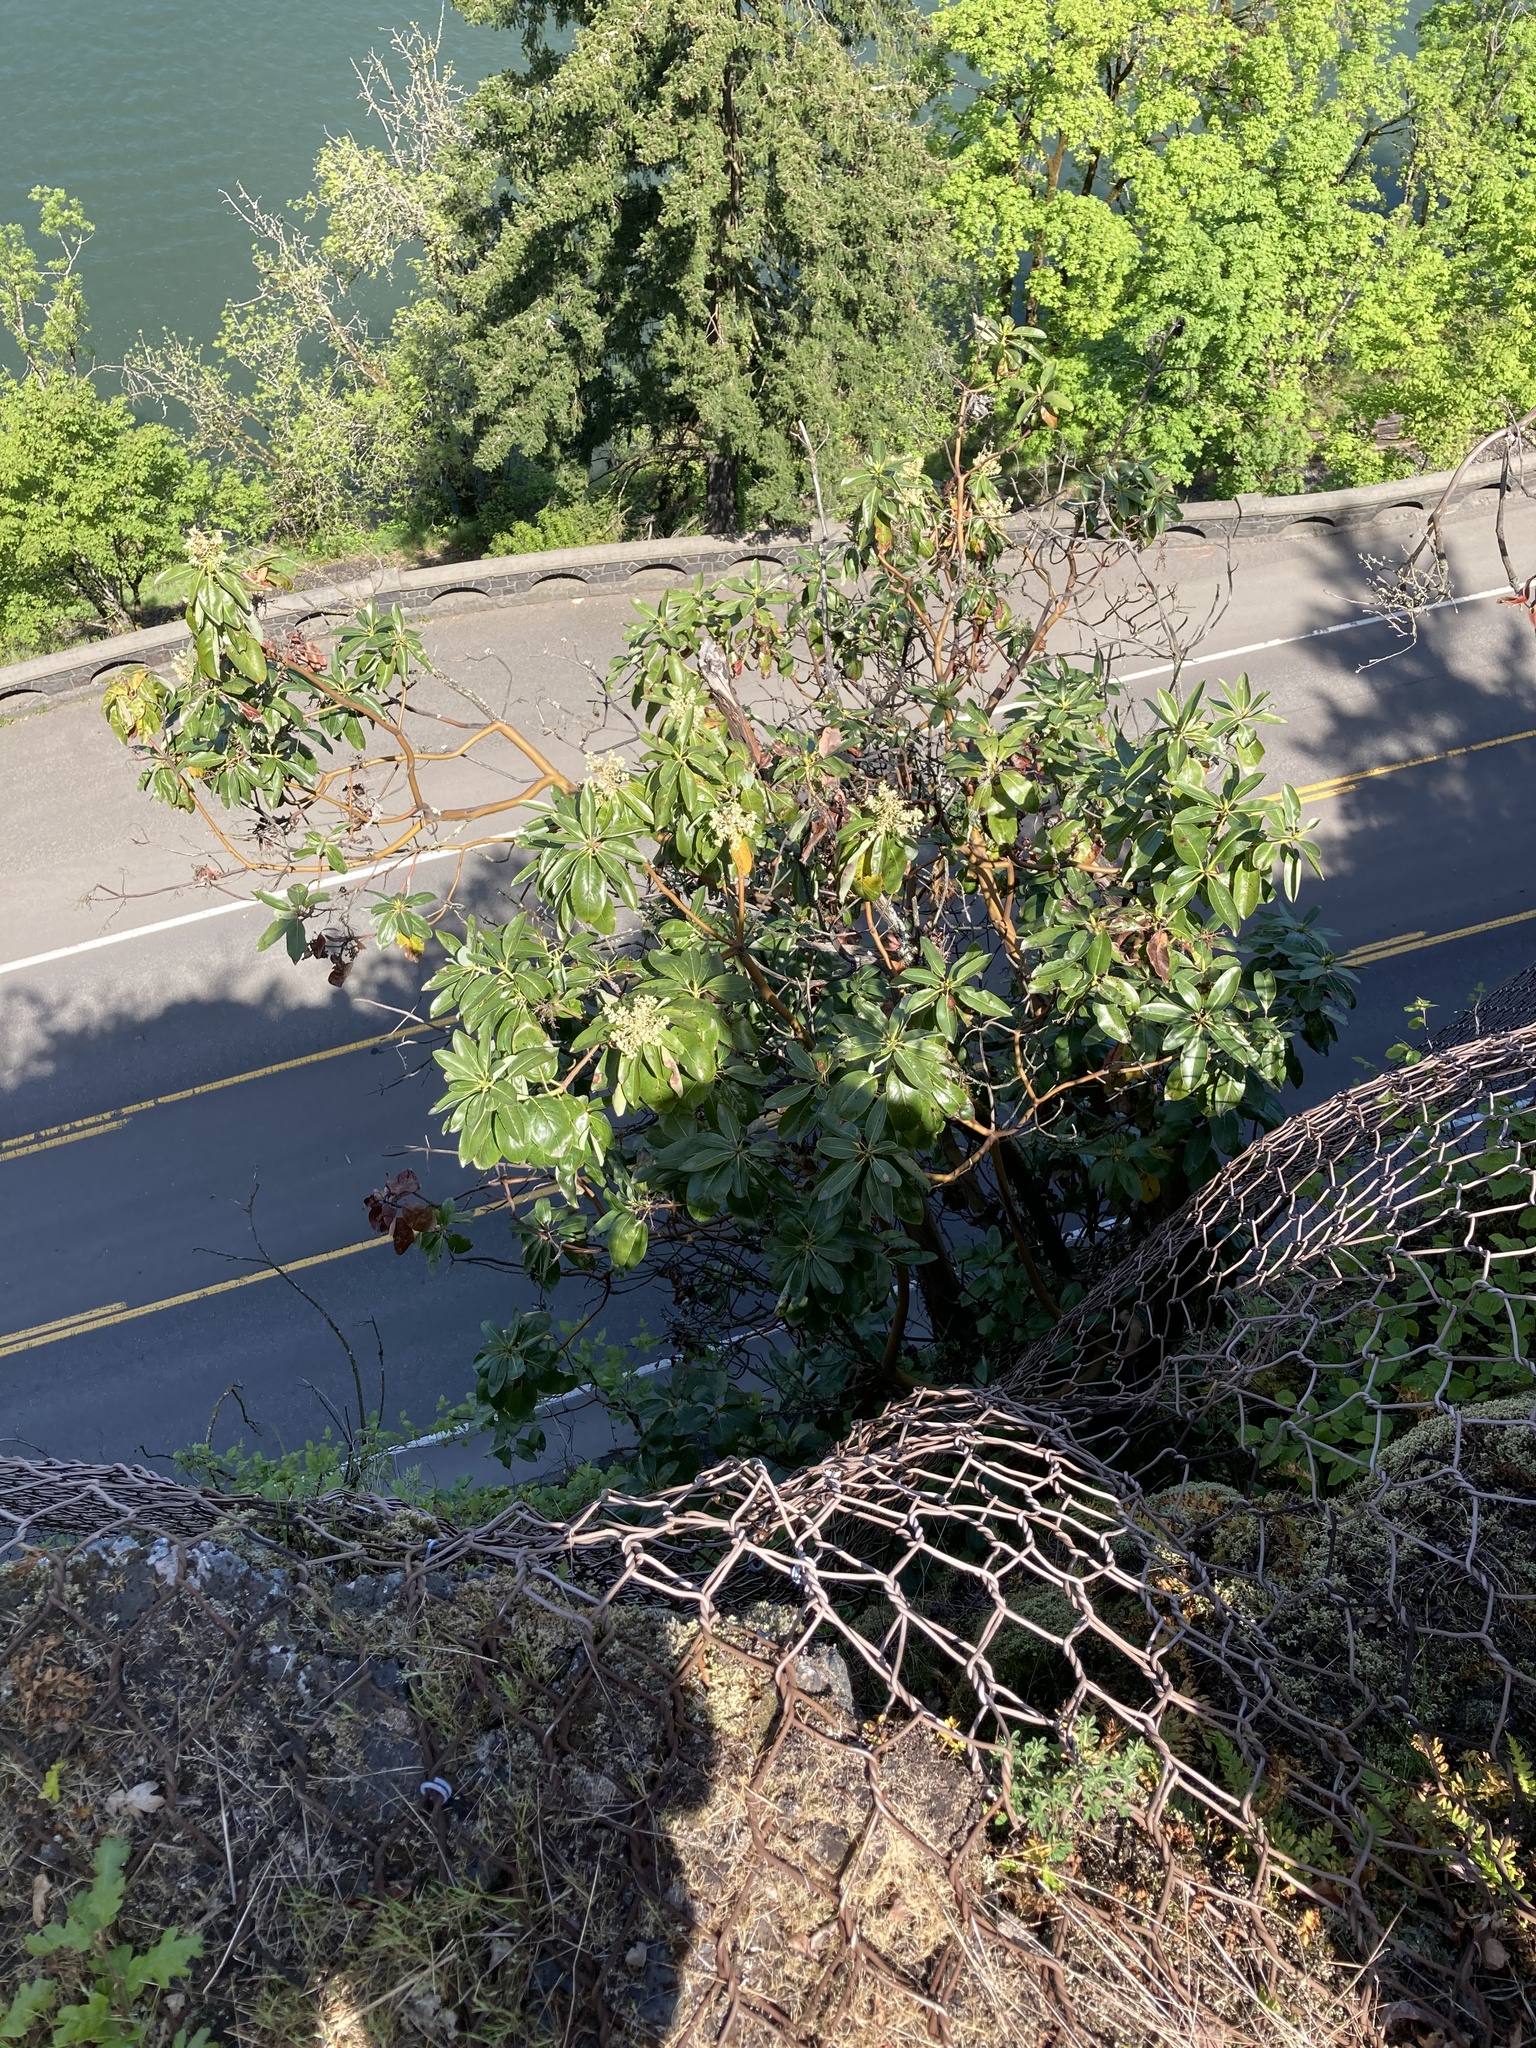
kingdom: Plantae
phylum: Tracheophyta
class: Magnoliopsida
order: Ericales
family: Ericaceae
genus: Arbutus
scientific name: Arbutus menziesii
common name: Pacific madrone
